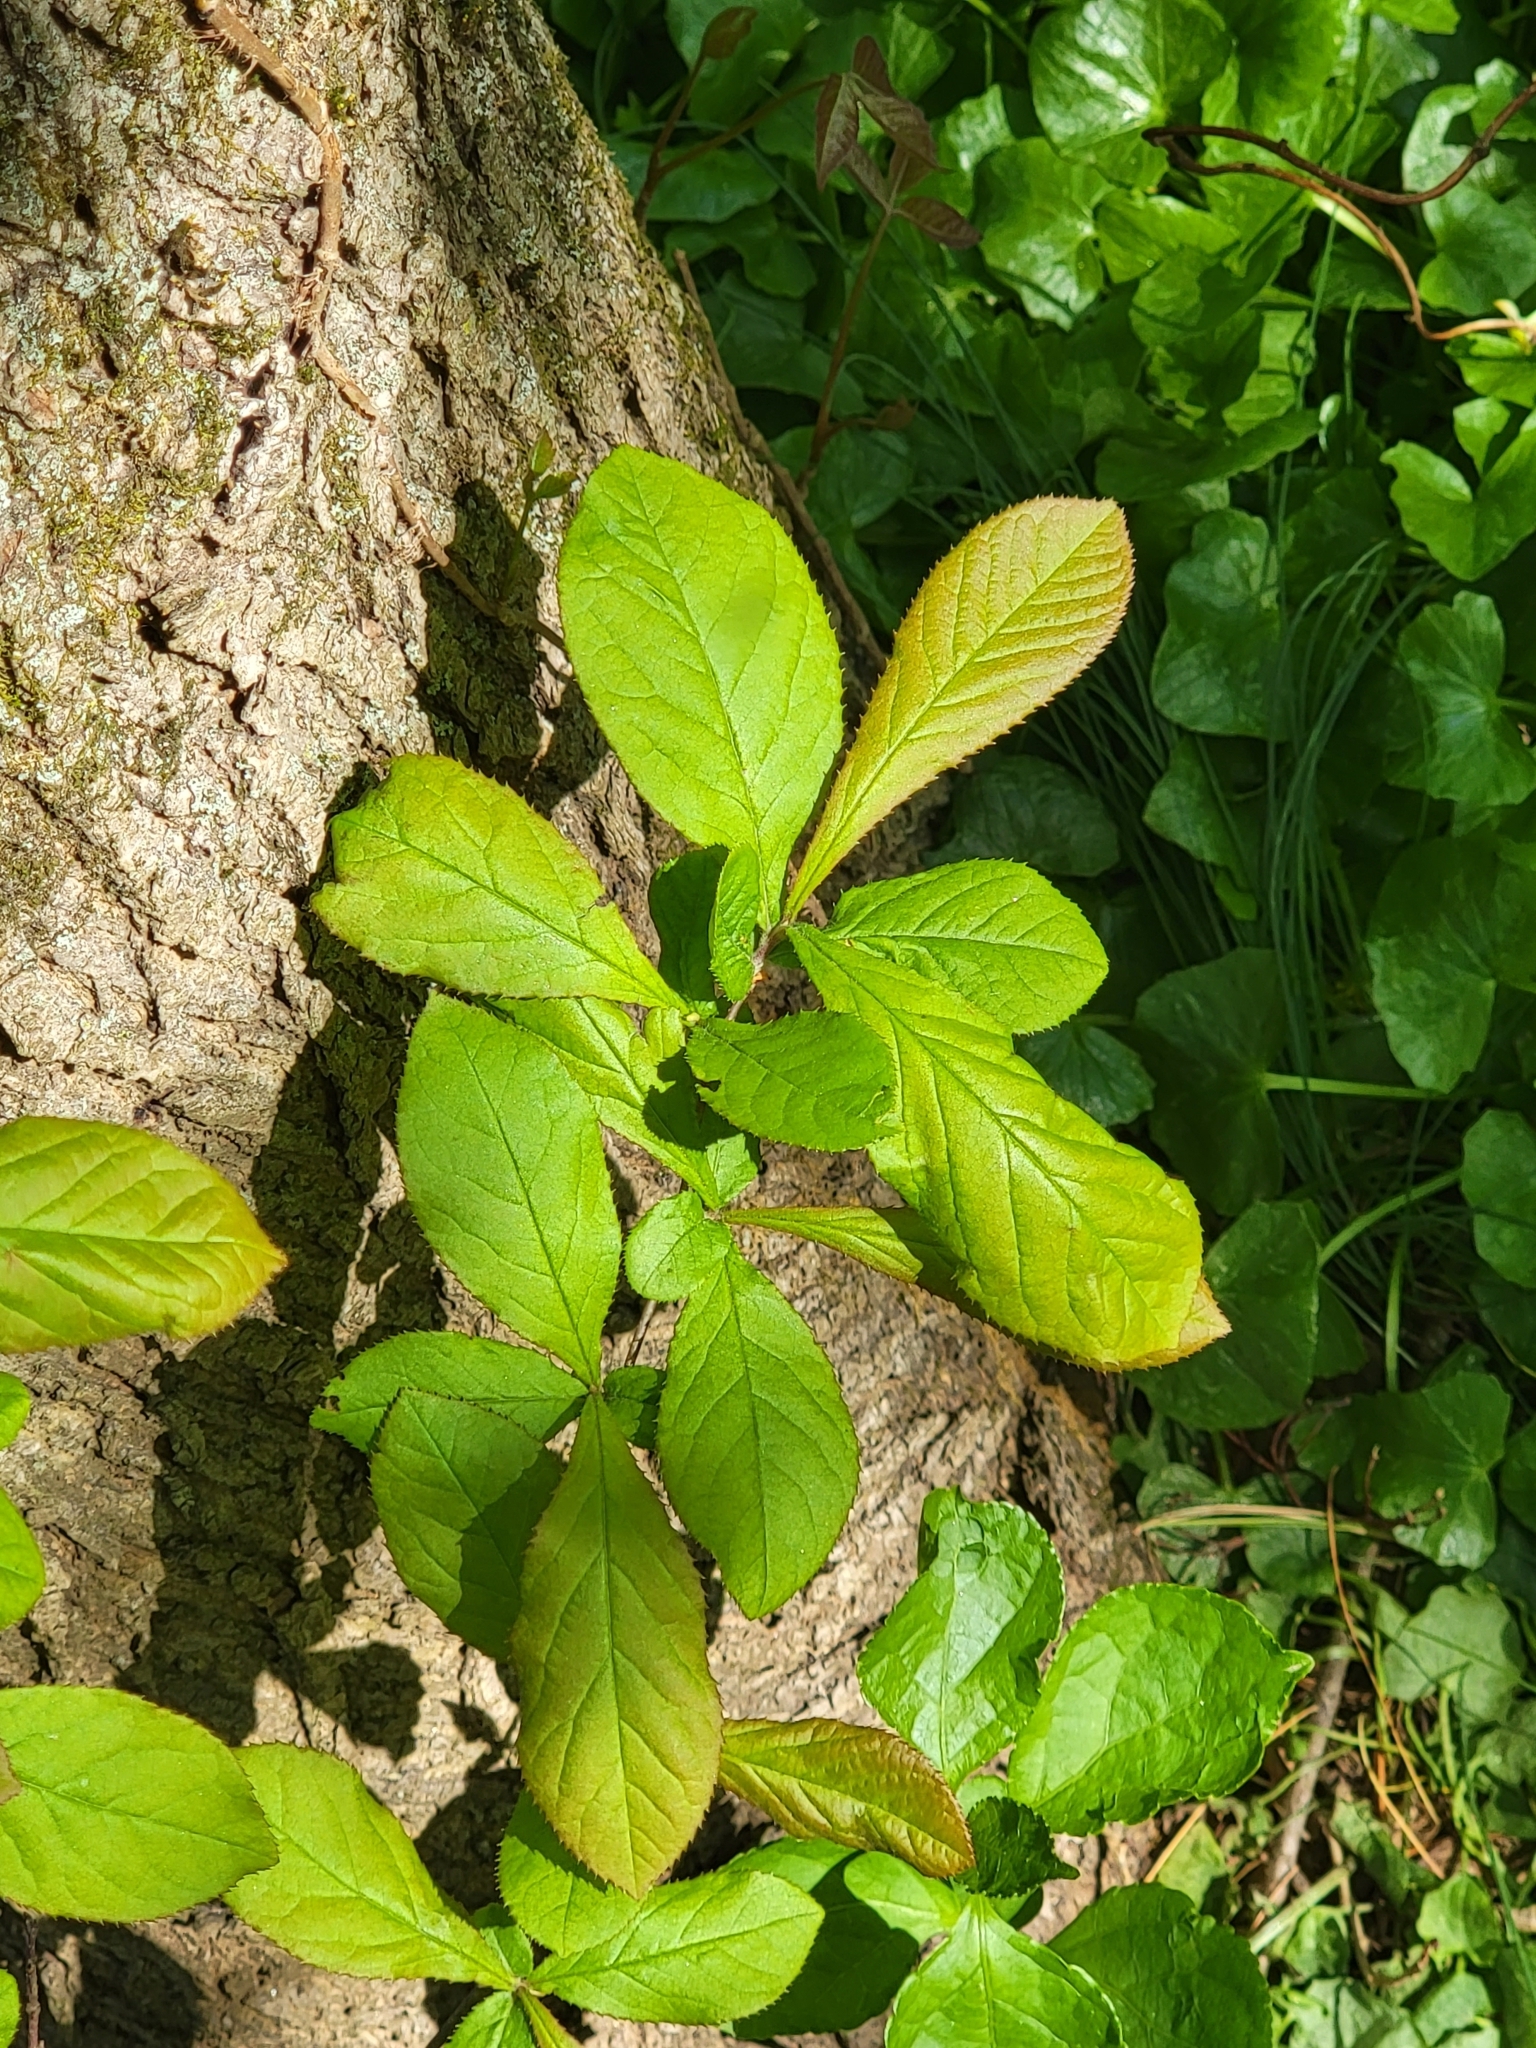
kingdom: Plantae
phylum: Tracheophyta
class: Magnoliopsida
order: Rosales
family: Rosaceae
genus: Pourthiaea
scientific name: Pourthiaea villosa
